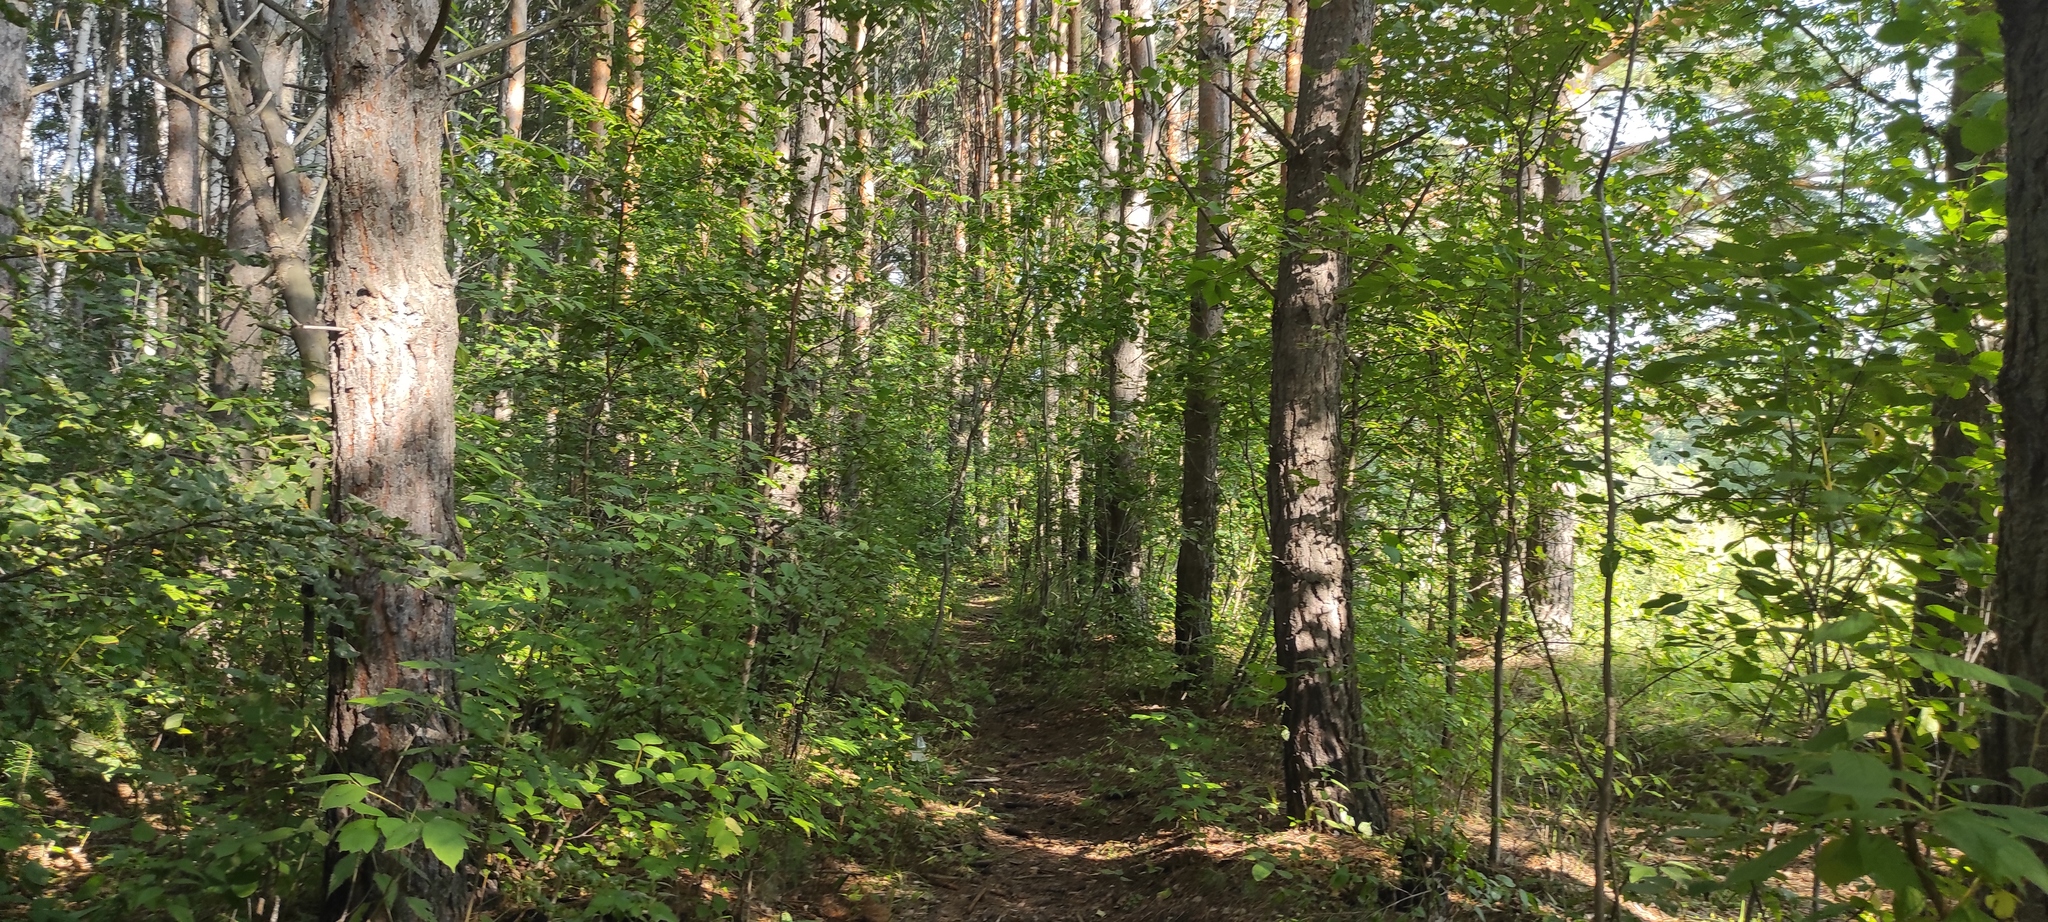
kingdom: Plantae
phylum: Tracheophyta
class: Pinopsida
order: Pinales
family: Pinaceae
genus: Pinus
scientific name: Pinus sylvestris
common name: Scots pine
